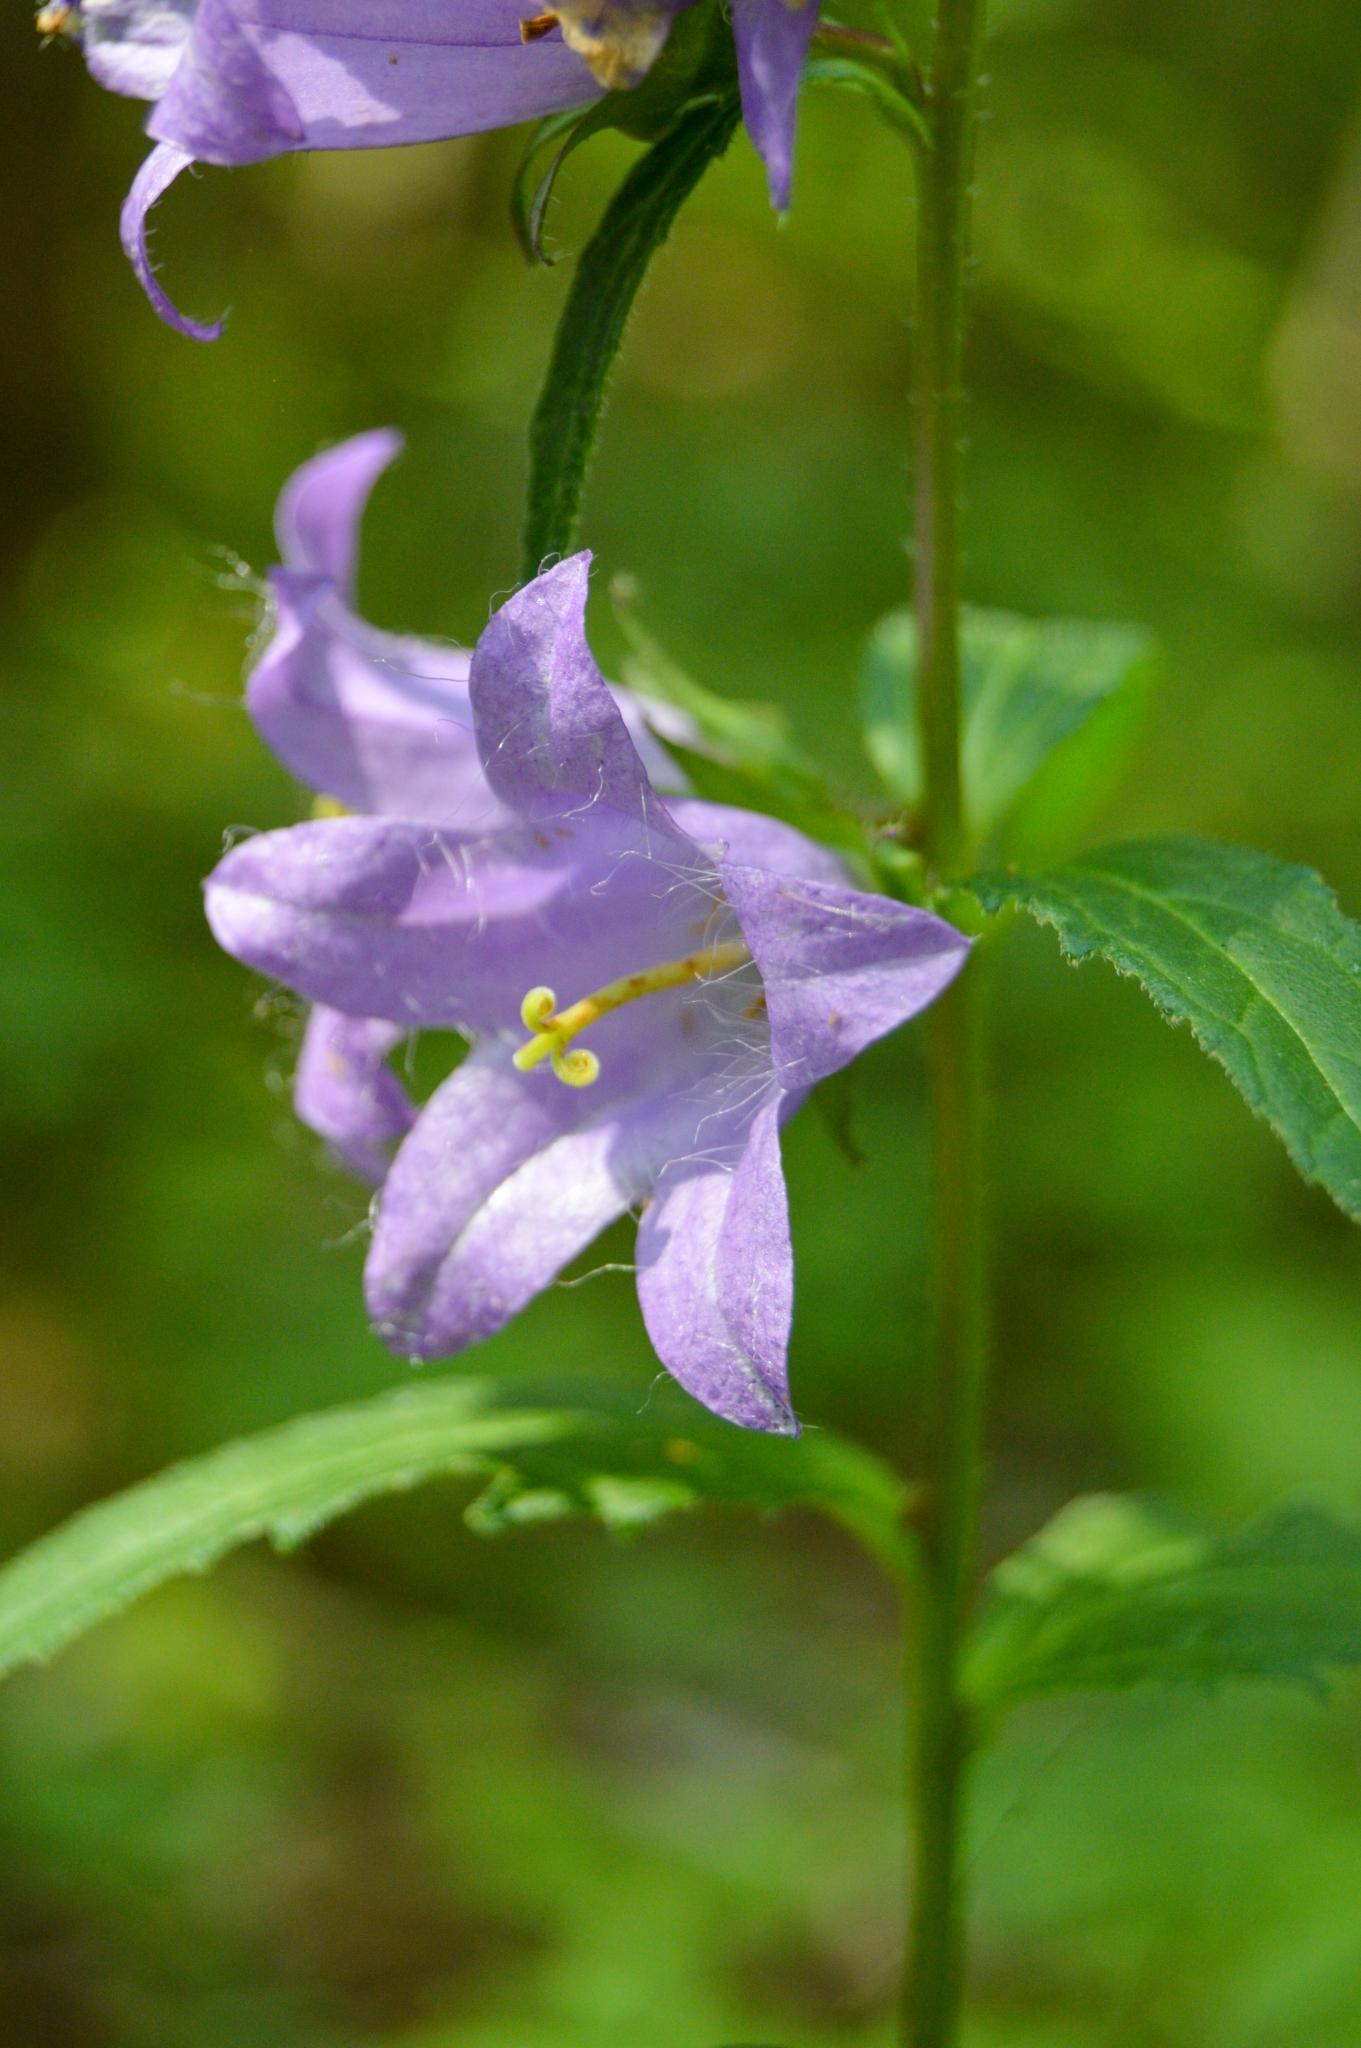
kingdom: Plantae
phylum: Tracheophyta
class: Magnoliopsida
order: Asterales
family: Campanulaceae
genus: Campanula
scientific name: Campanula trachelium
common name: Nettle-leaved bellflower
